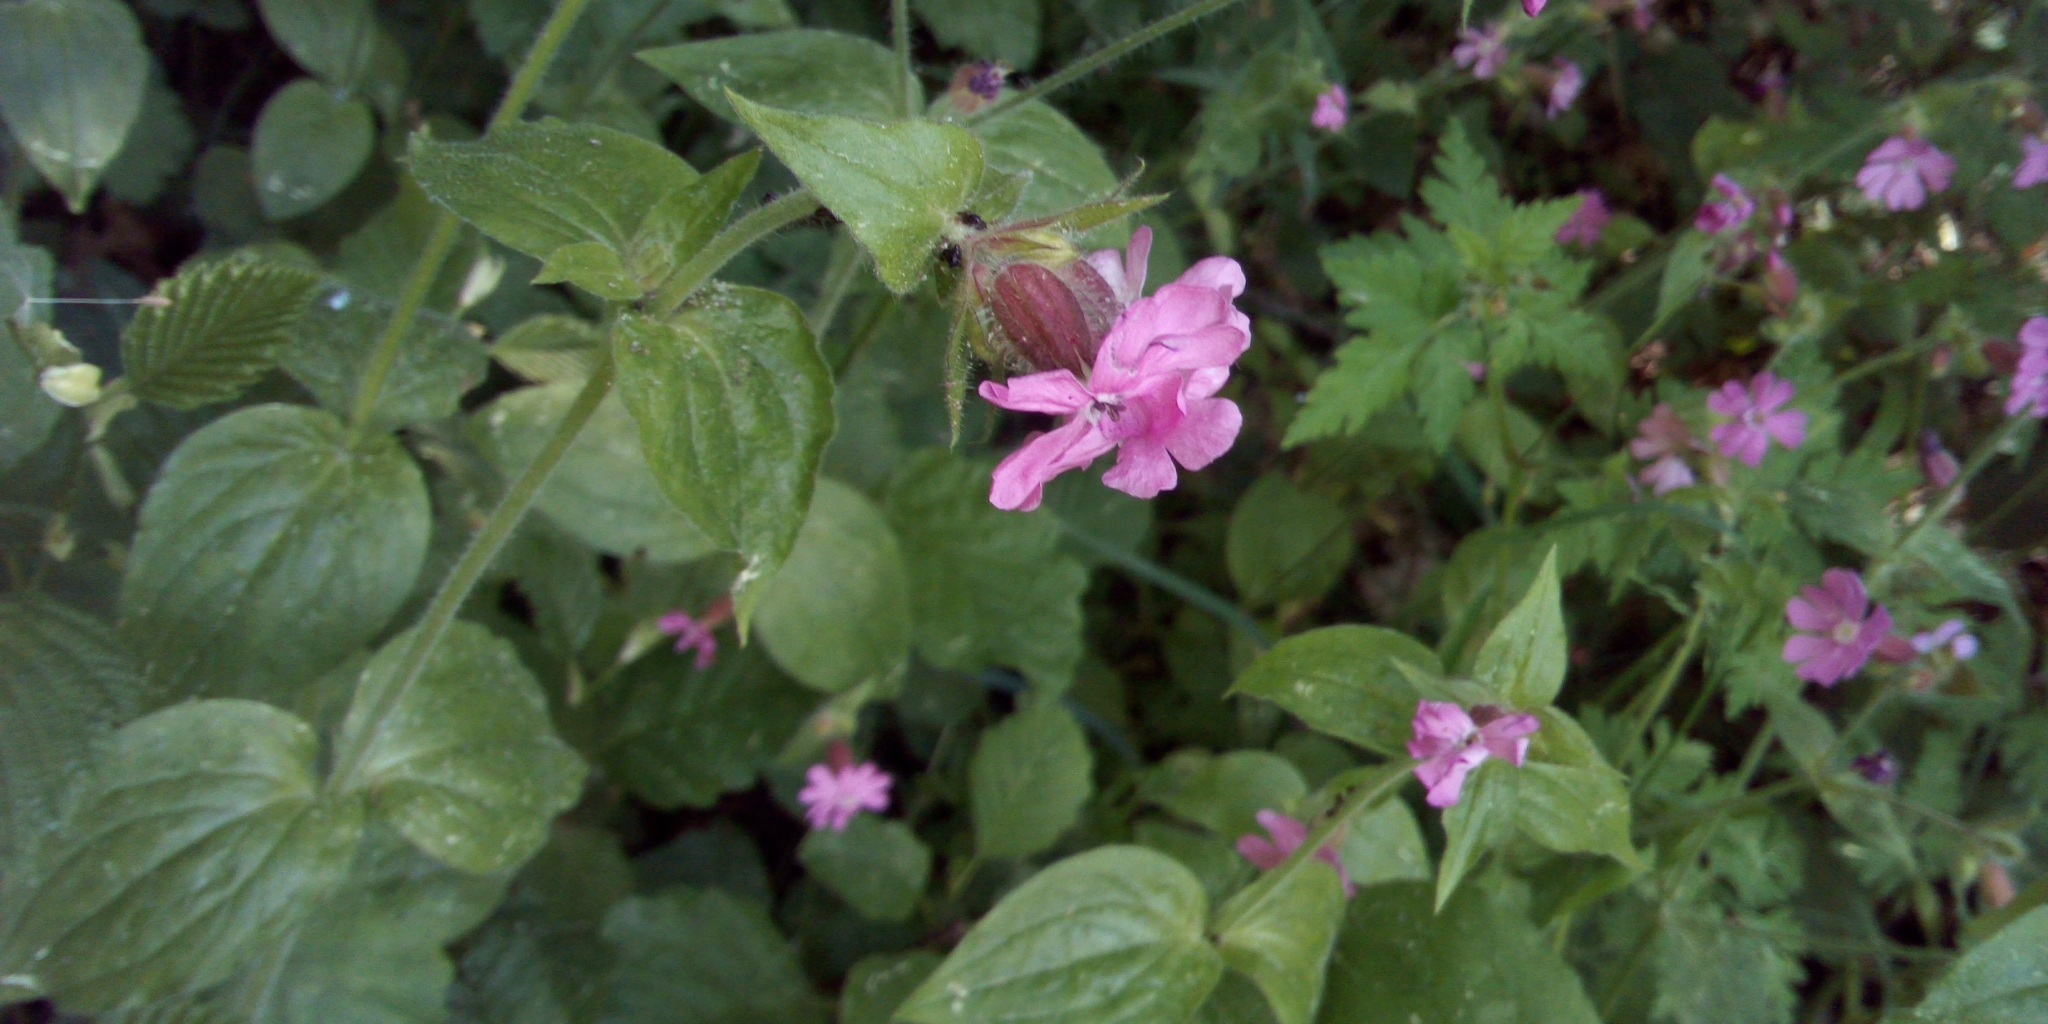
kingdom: Plantae
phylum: Tracheophyta
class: Magnoliopsida
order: Caryophyllales
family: Caryophyllaceae
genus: Silene
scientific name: Silene dioica
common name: Red campion
